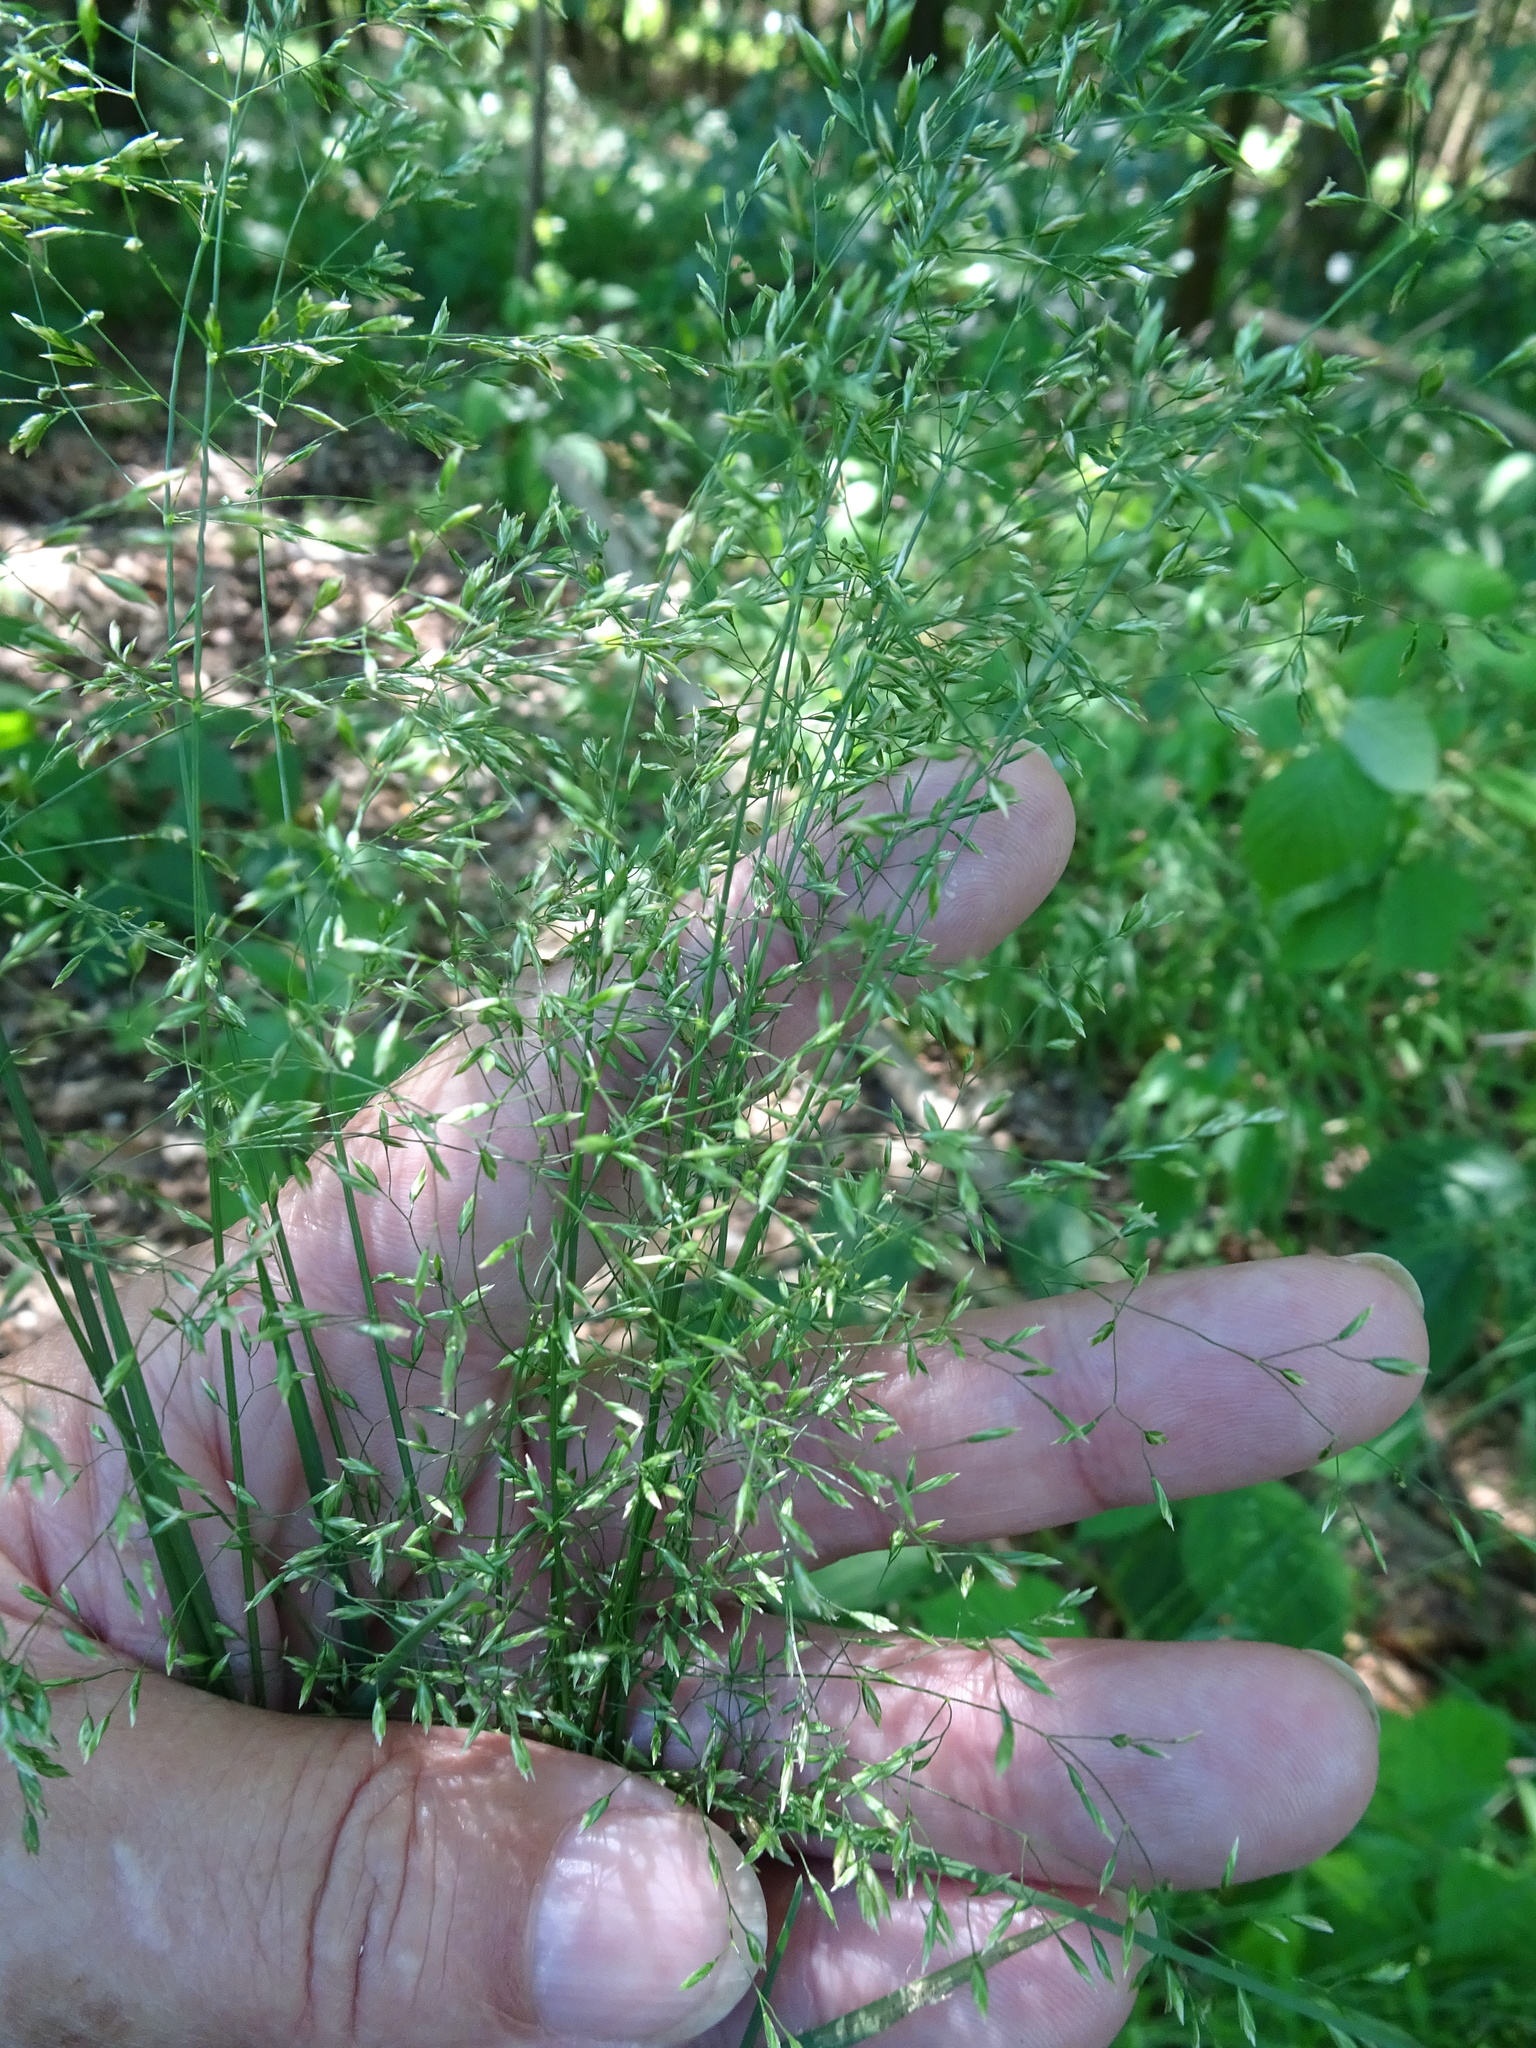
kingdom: Plantae
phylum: Tracheophyta
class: Liliopsida
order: Poales
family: Poaceae
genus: Poa
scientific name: Poa nemoralis
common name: Wood bluegrass
